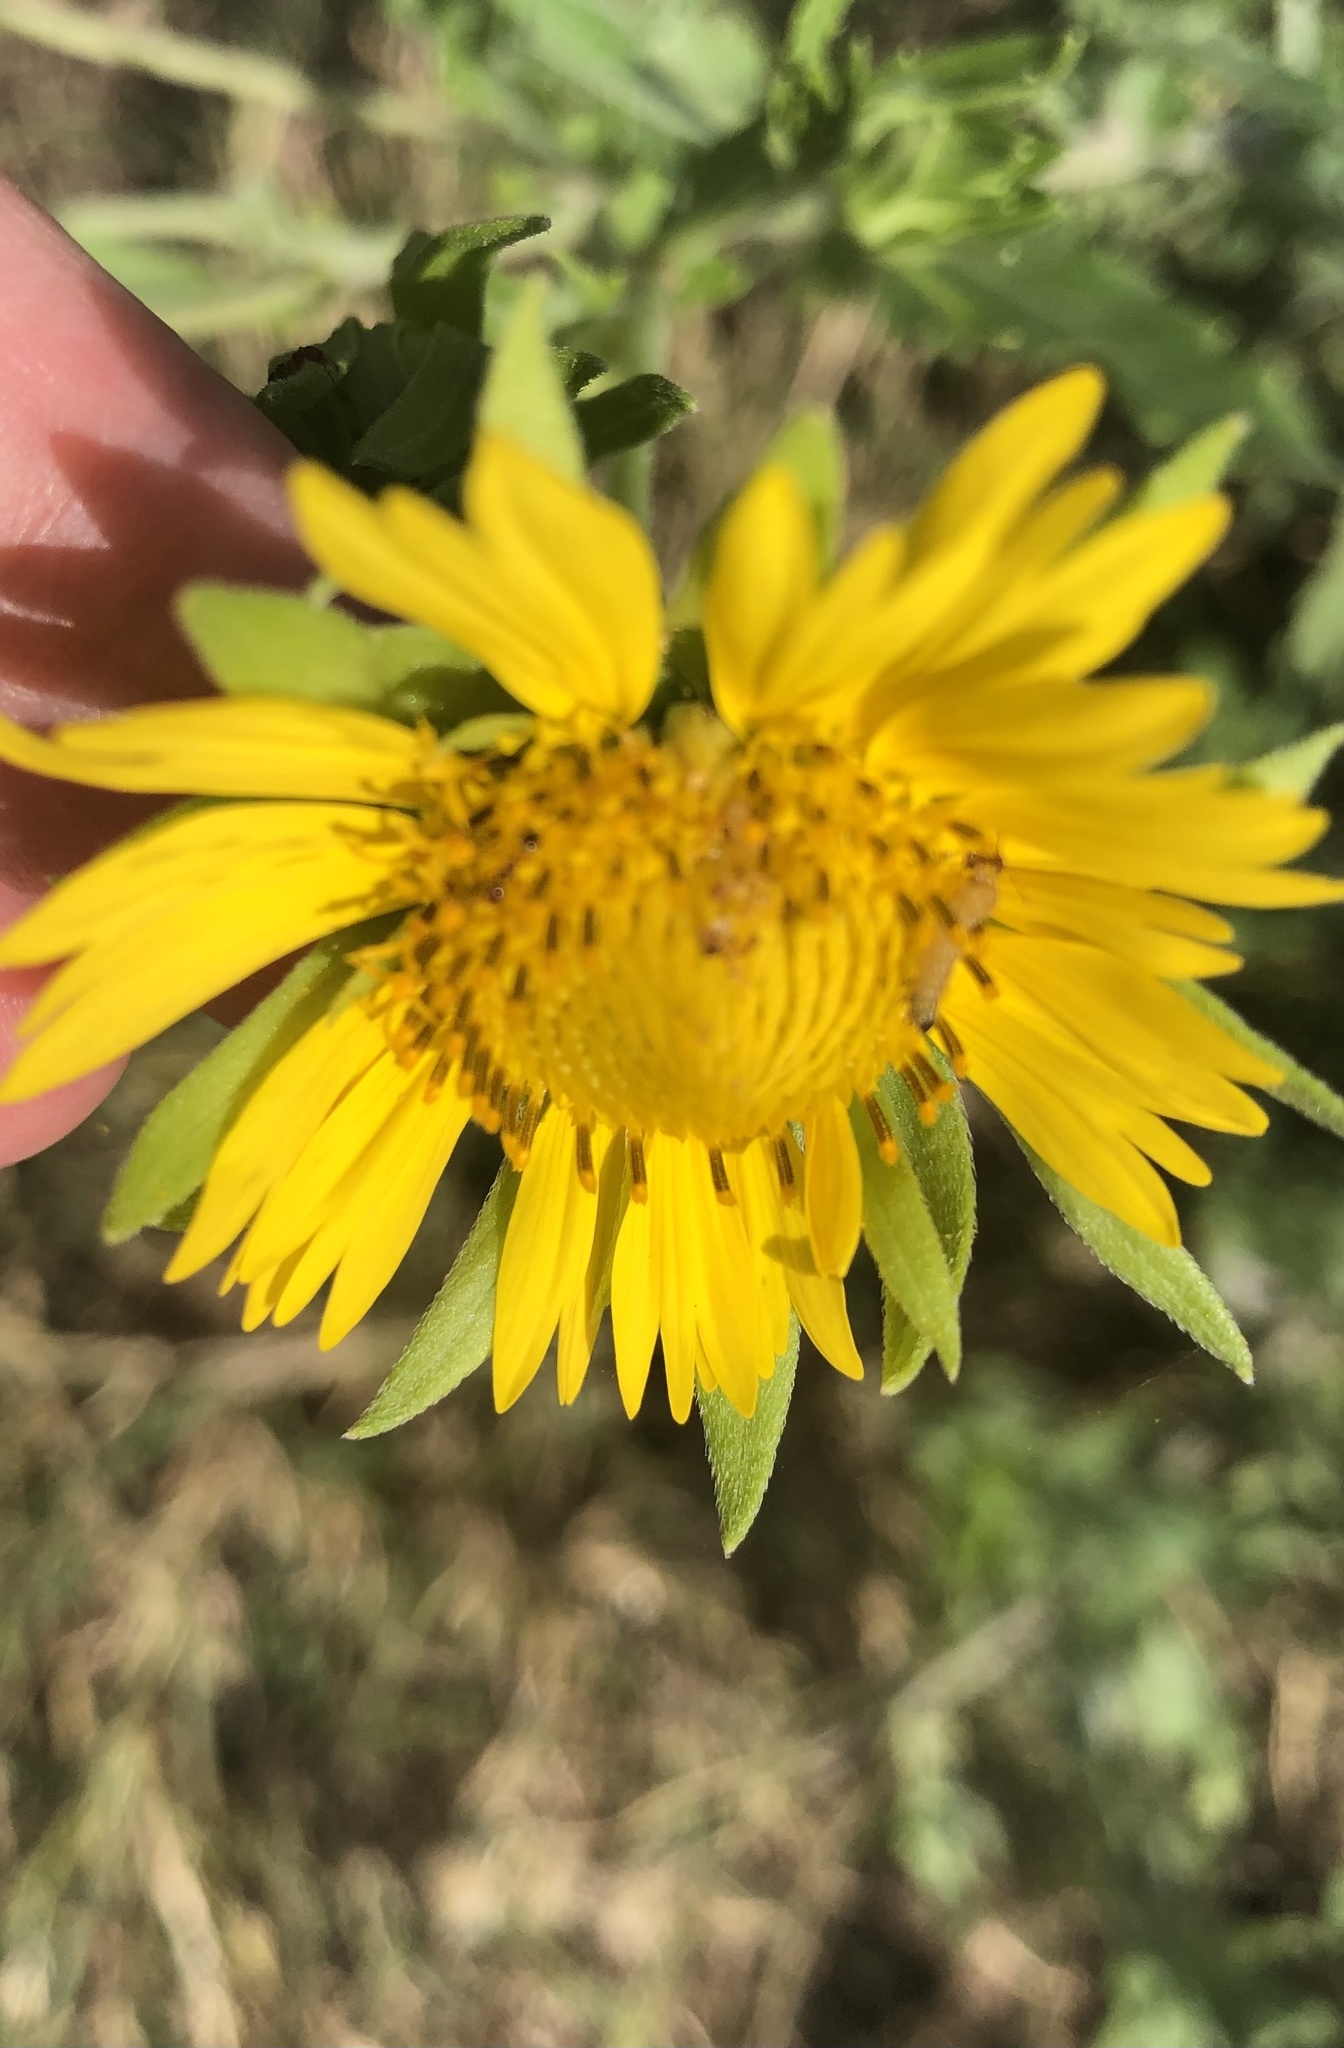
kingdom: Plantae
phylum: Tracheophyta
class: Magnoliopsida
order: Asterales
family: Asteraceae
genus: Verbesina
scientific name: Verbesina encelioides
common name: Golden crownbeard
